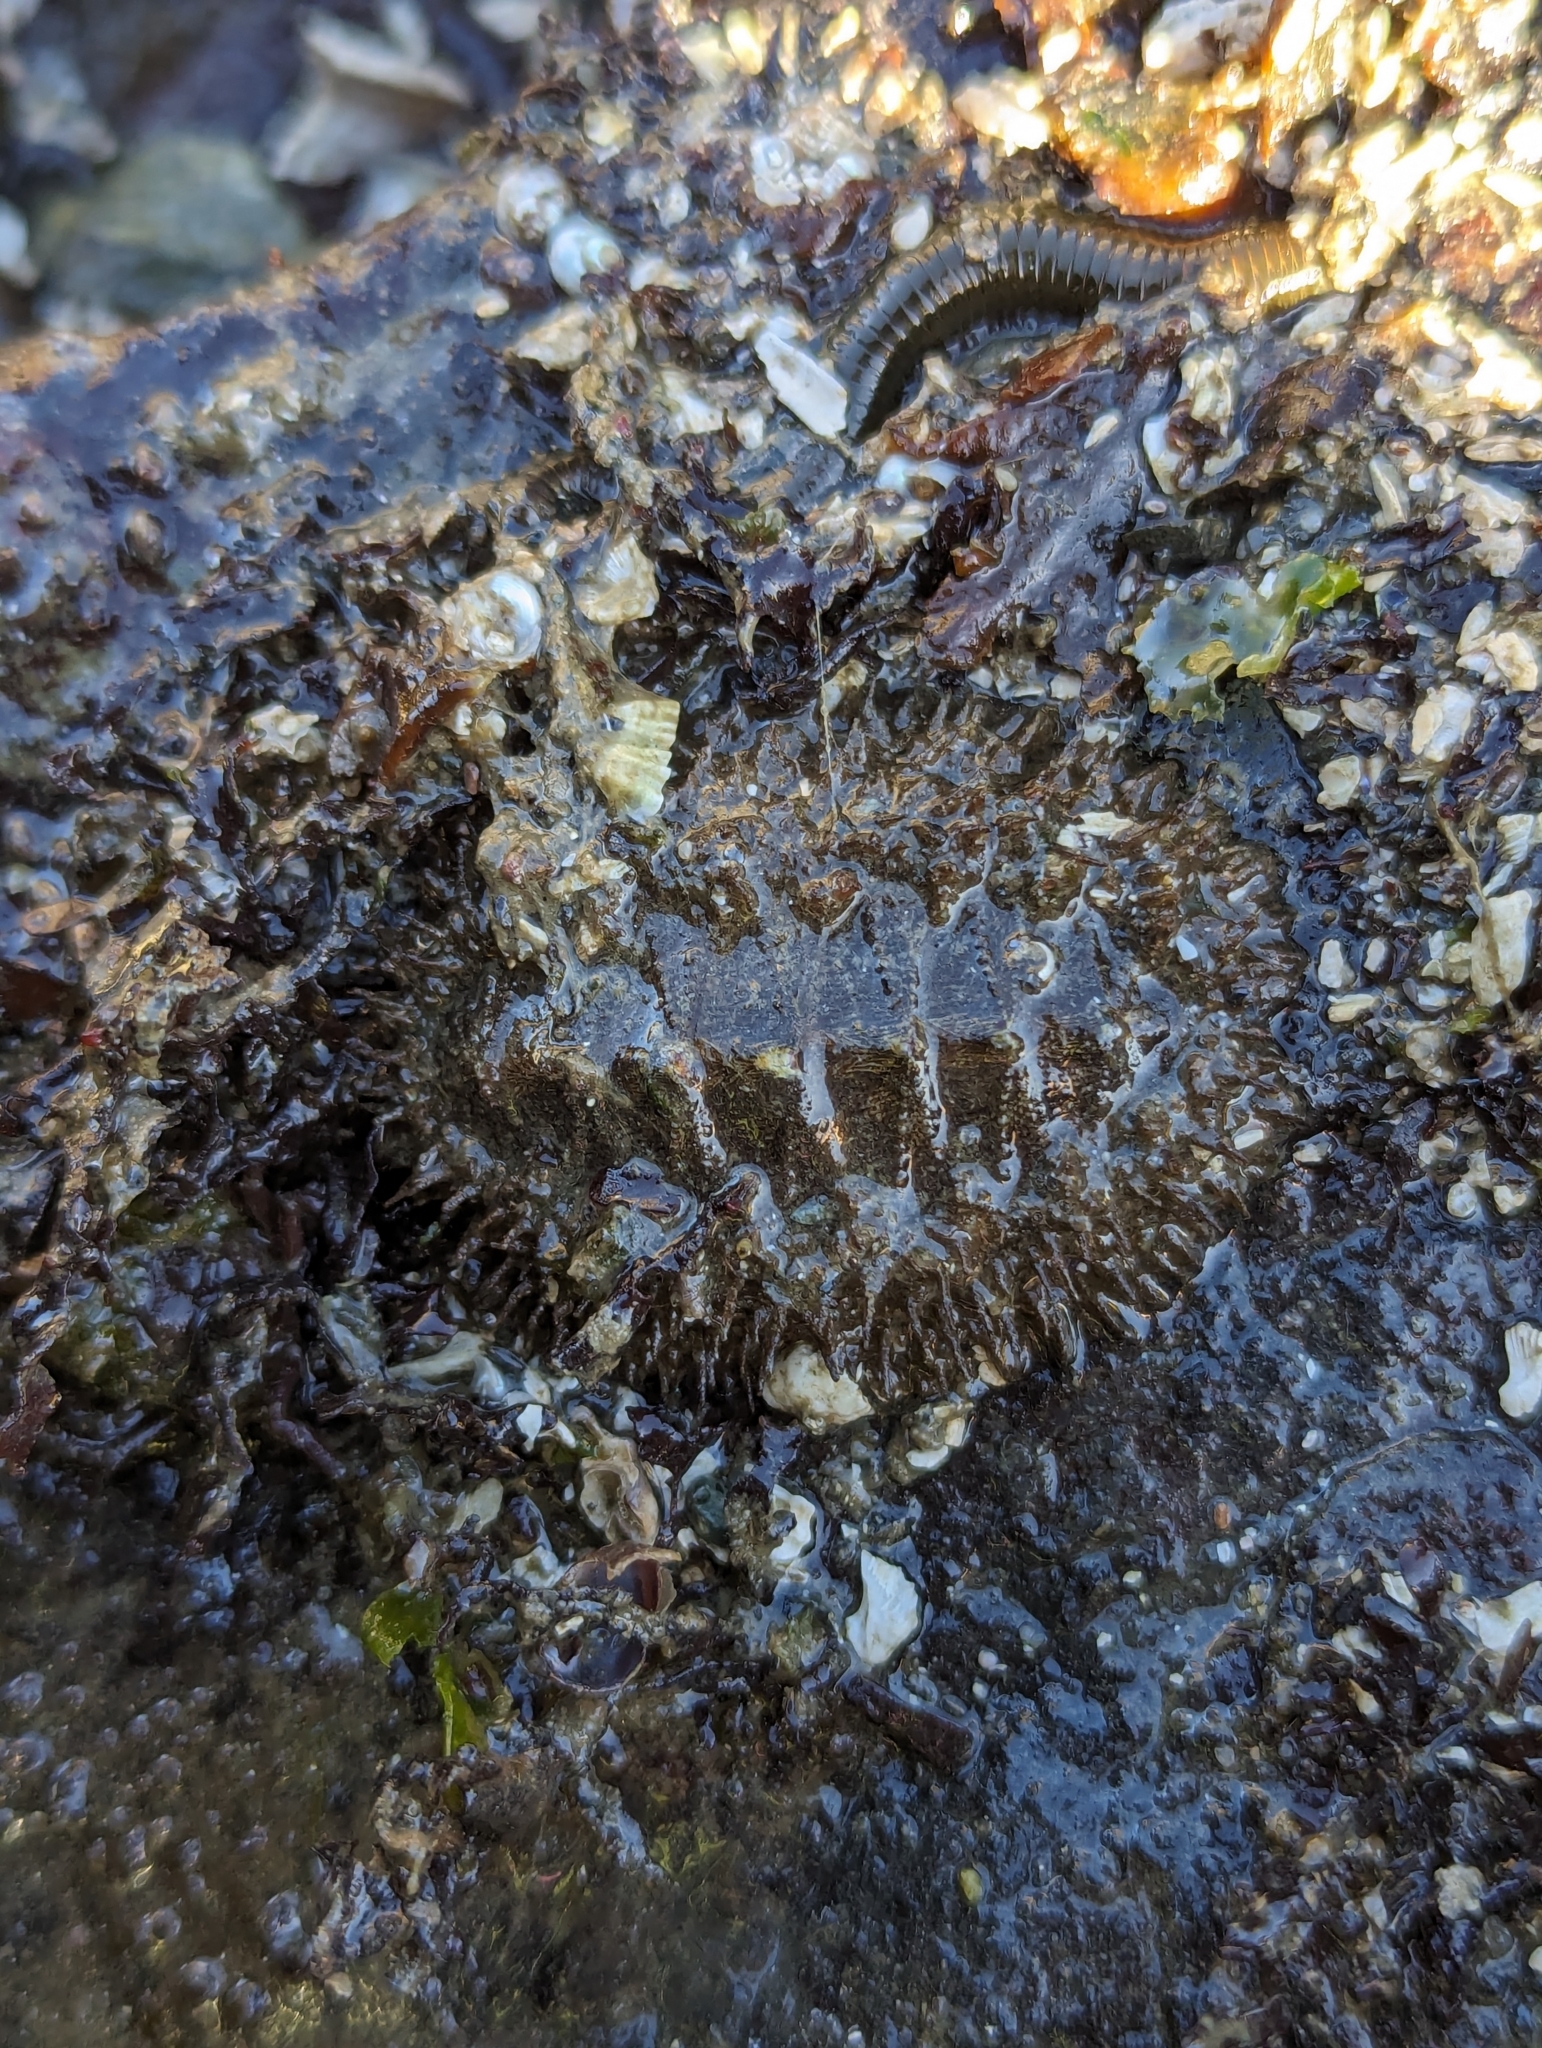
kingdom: Animalia
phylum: Mollusca
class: Polyplacophora
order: Chitonida
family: Mopaliidae
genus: Mopalia
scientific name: Mopalia muscosa
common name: Mossy chiton
